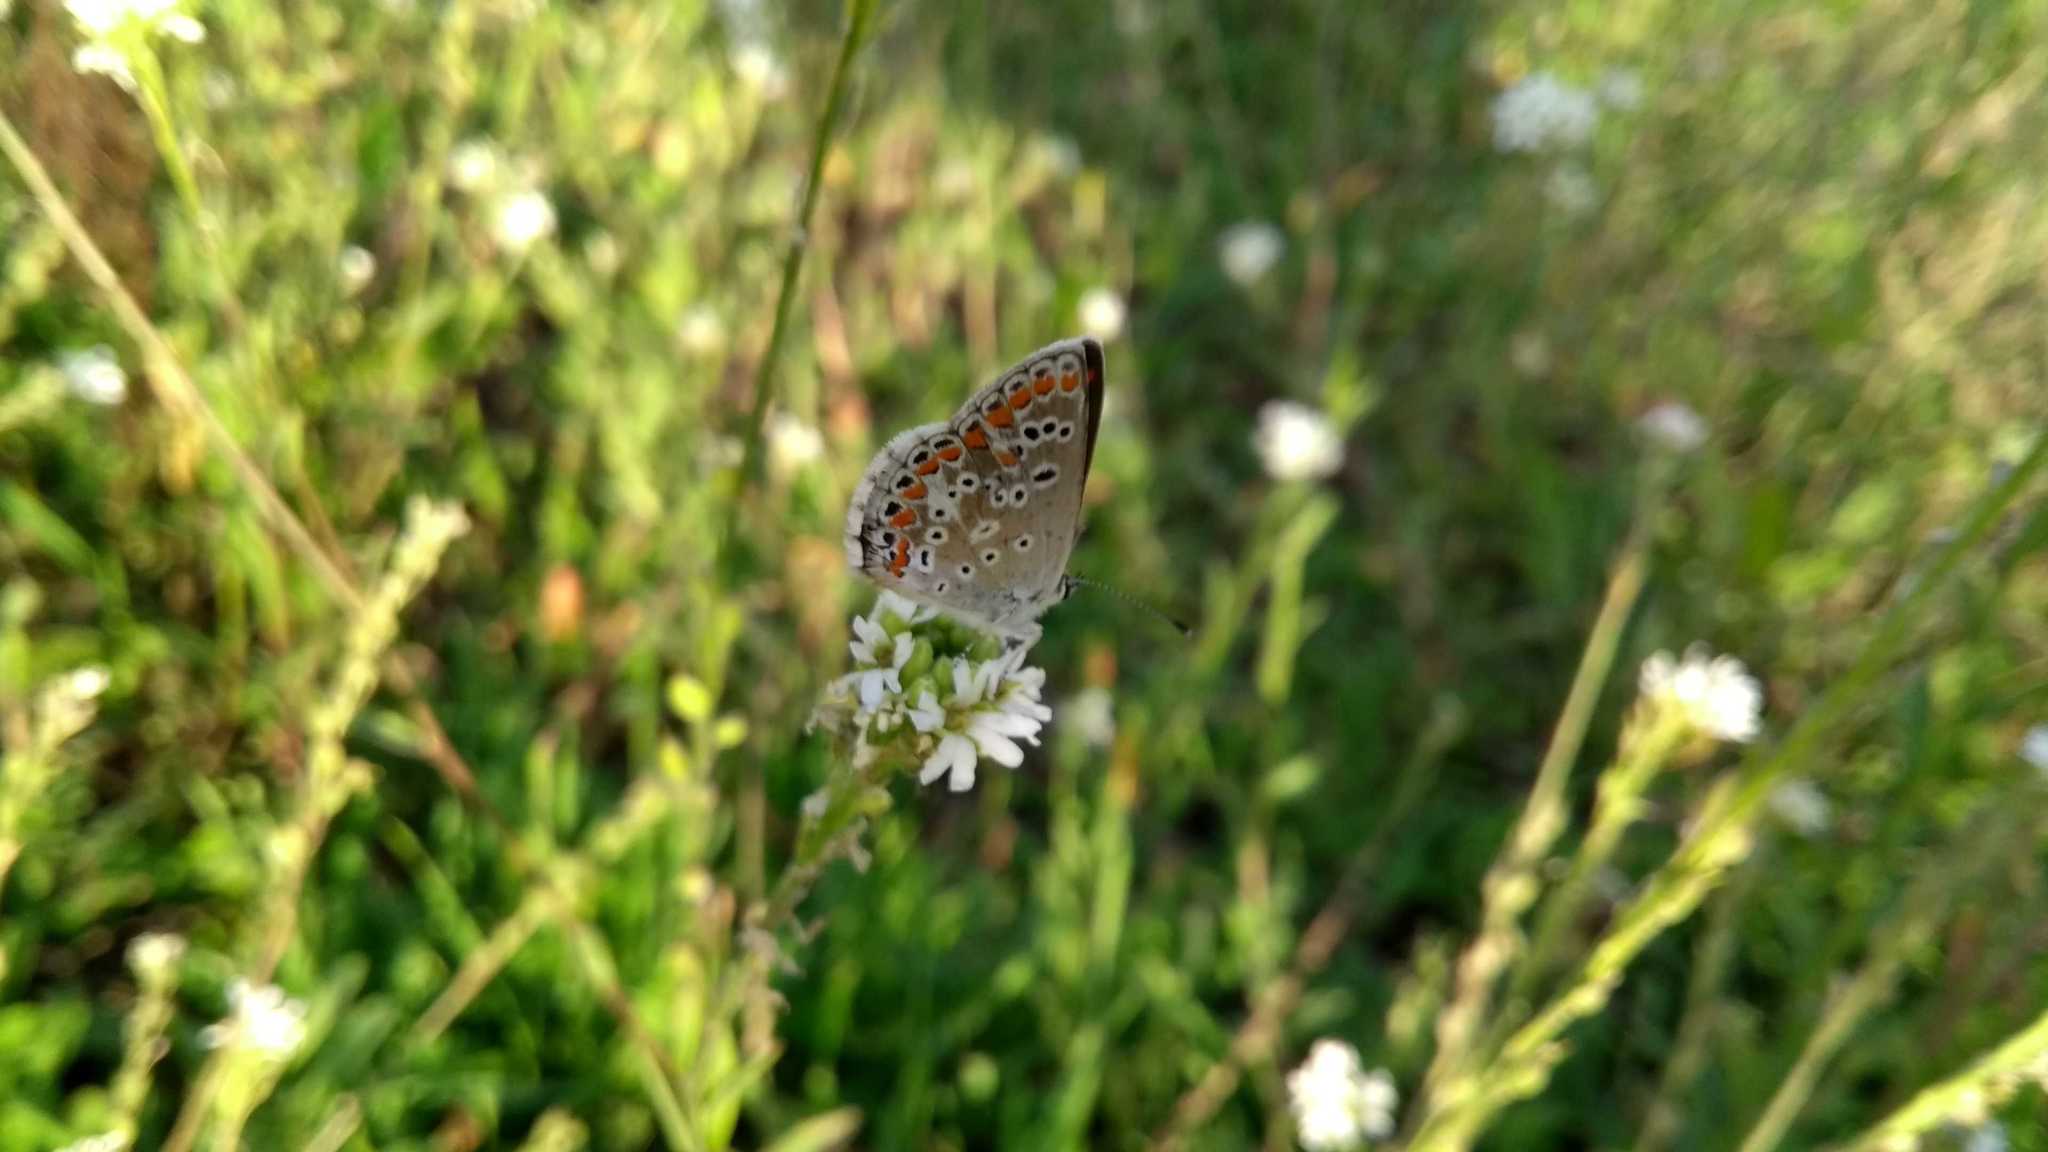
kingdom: Animalia
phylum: Arthropoda
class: Insecta
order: Lepidoptera
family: Lycaenidae
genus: Aricia
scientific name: Aricia agestis
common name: Brown argus
